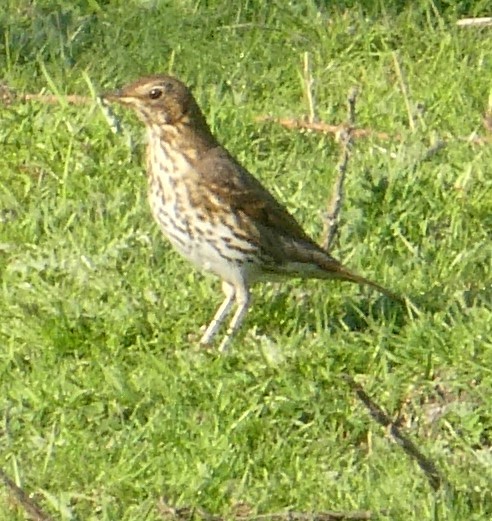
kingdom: Animalia
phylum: Chordata
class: Aves
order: Passeriformes
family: Turdidae
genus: Turdus
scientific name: Turdus philomelos
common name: Song thrush
